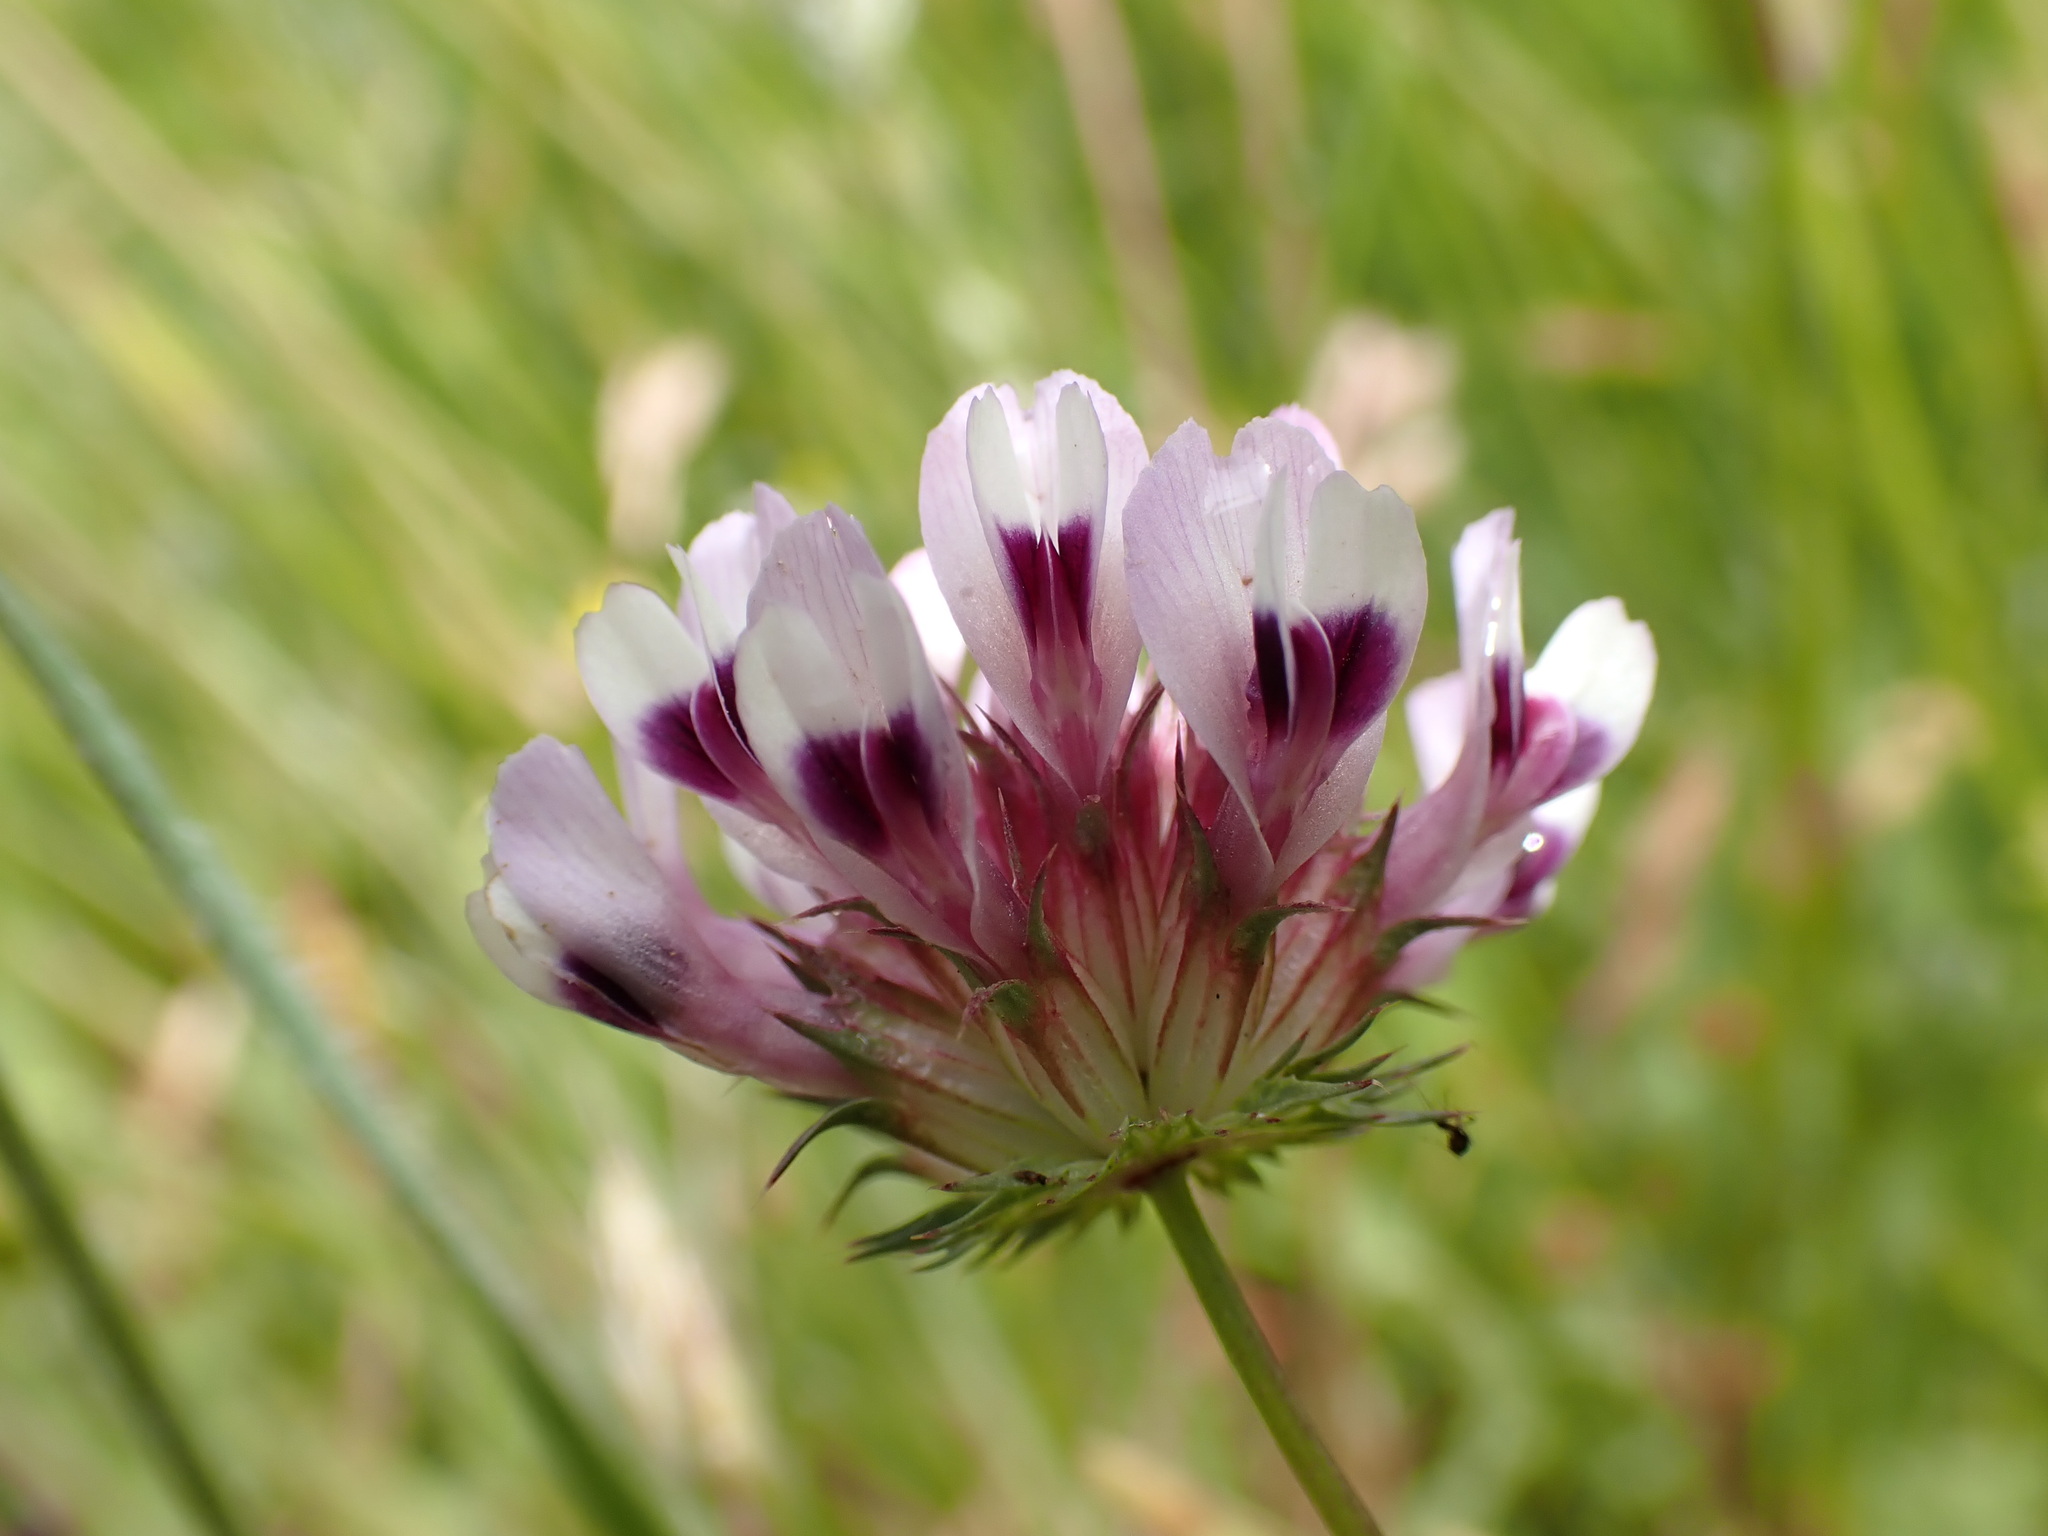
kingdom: Plantae
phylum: Tracheophyta
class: Magnoliopsida
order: Fabales
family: Fabaceae
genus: Trifolium
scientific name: Trifolium willdenovii
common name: Tomcat clover
